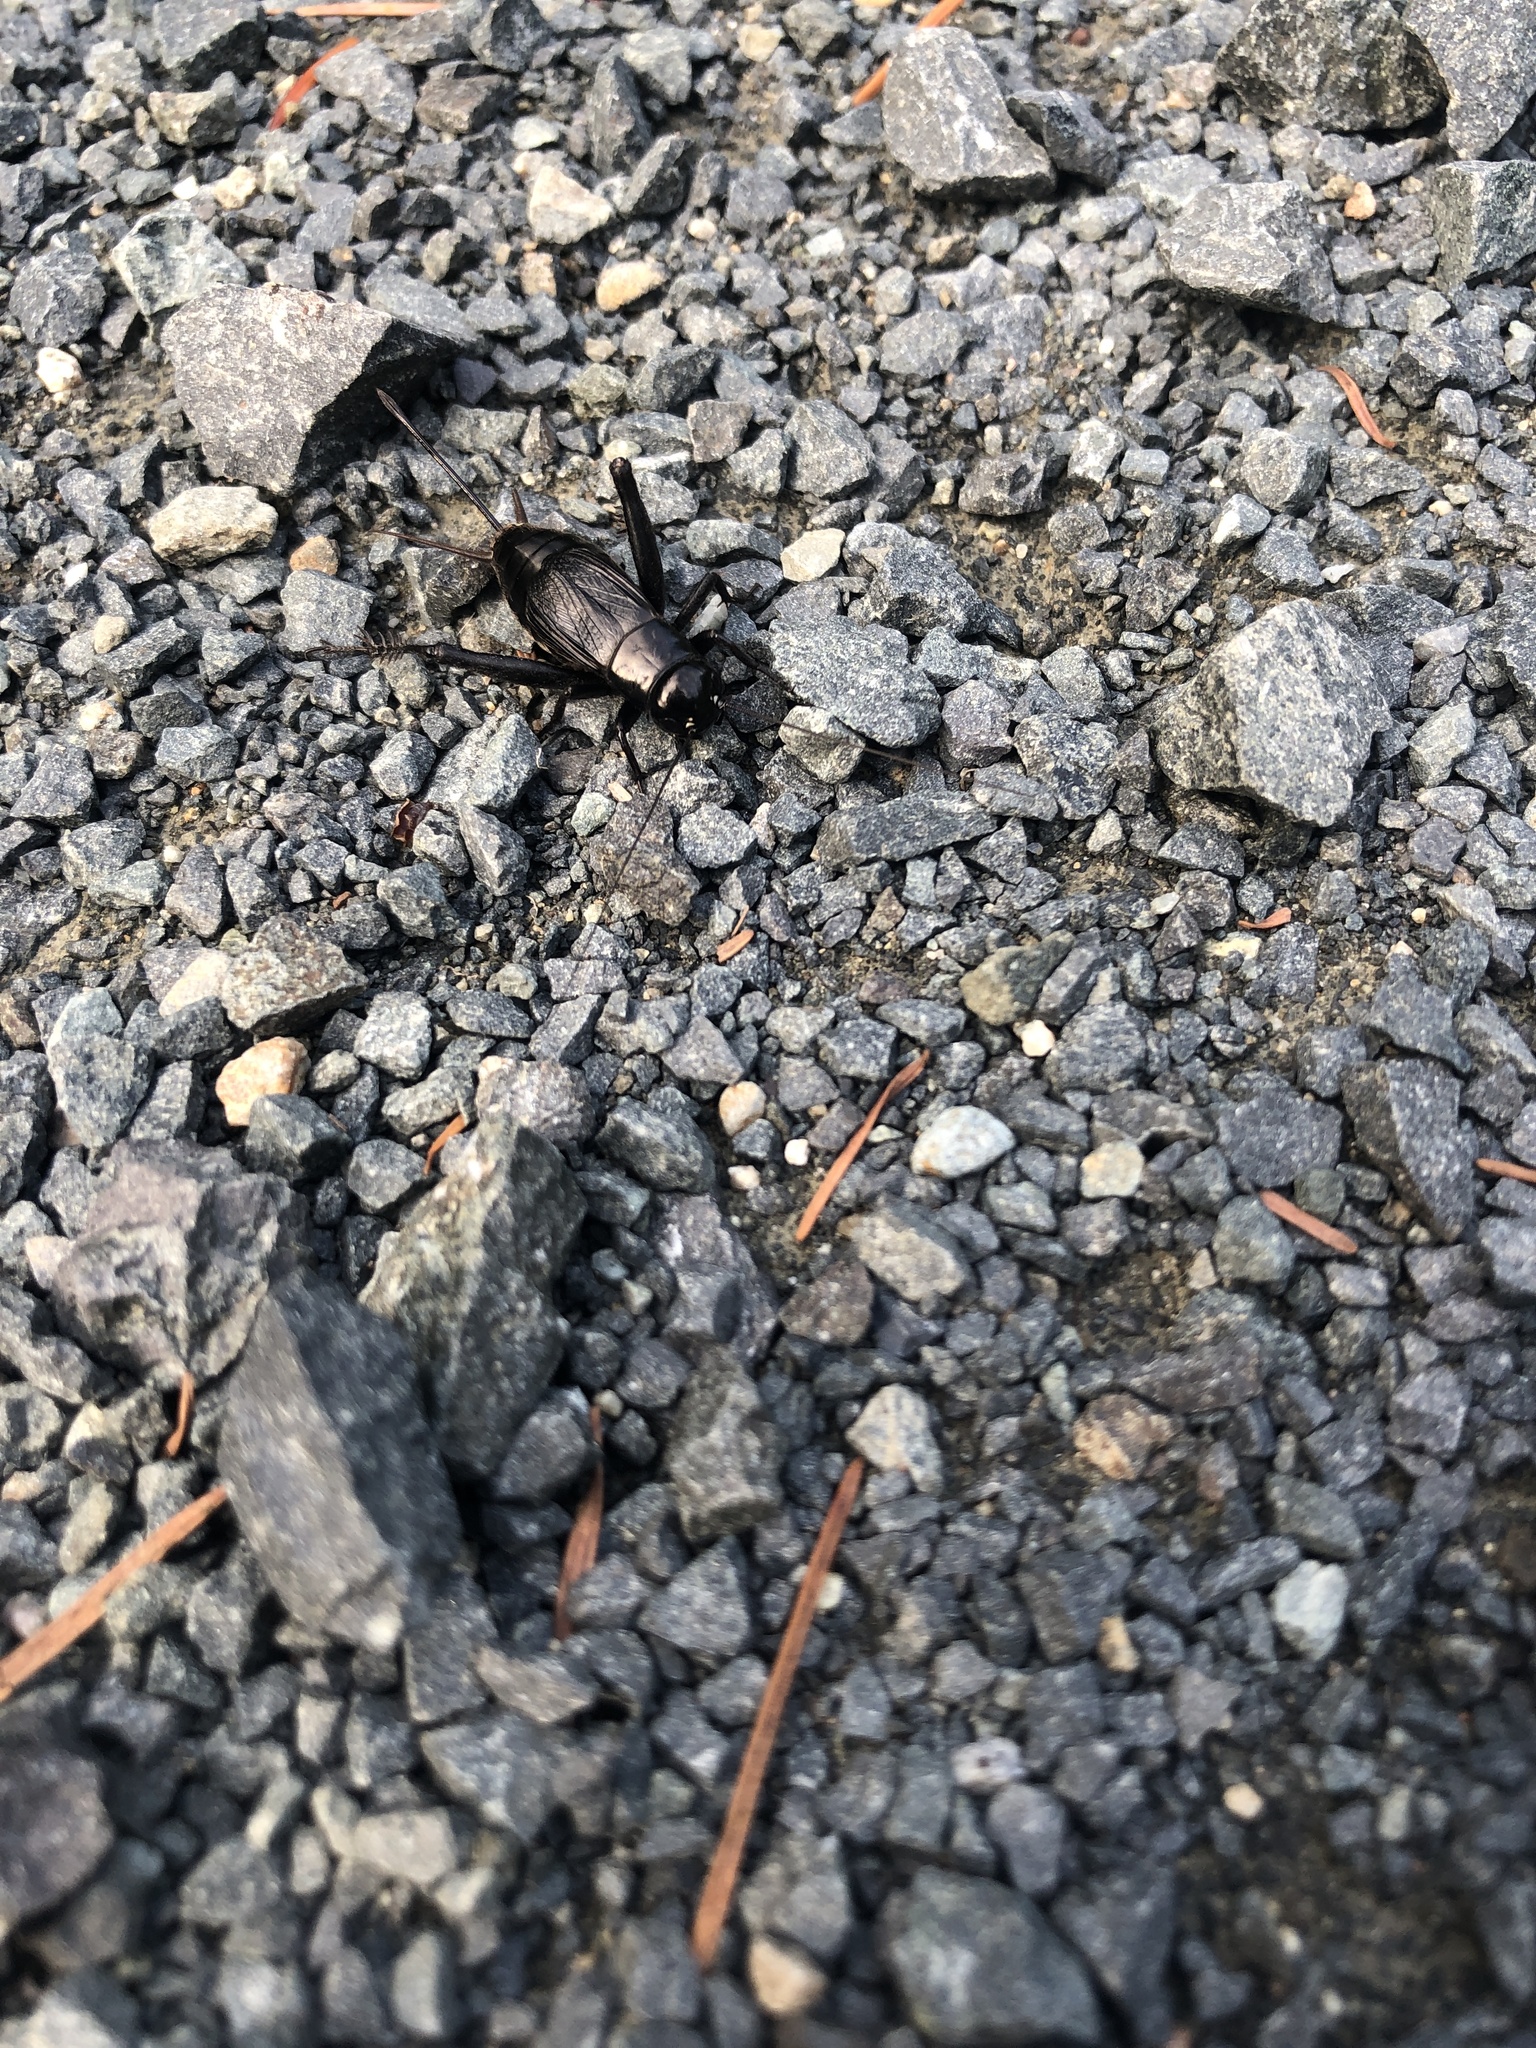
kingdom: Animalia
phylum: Arthropoda
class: Insecta
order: Orthoptera
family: Gryllidae
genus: Gryllus
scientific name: Gryllus pennsylvanicus
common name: Fall field cricket
